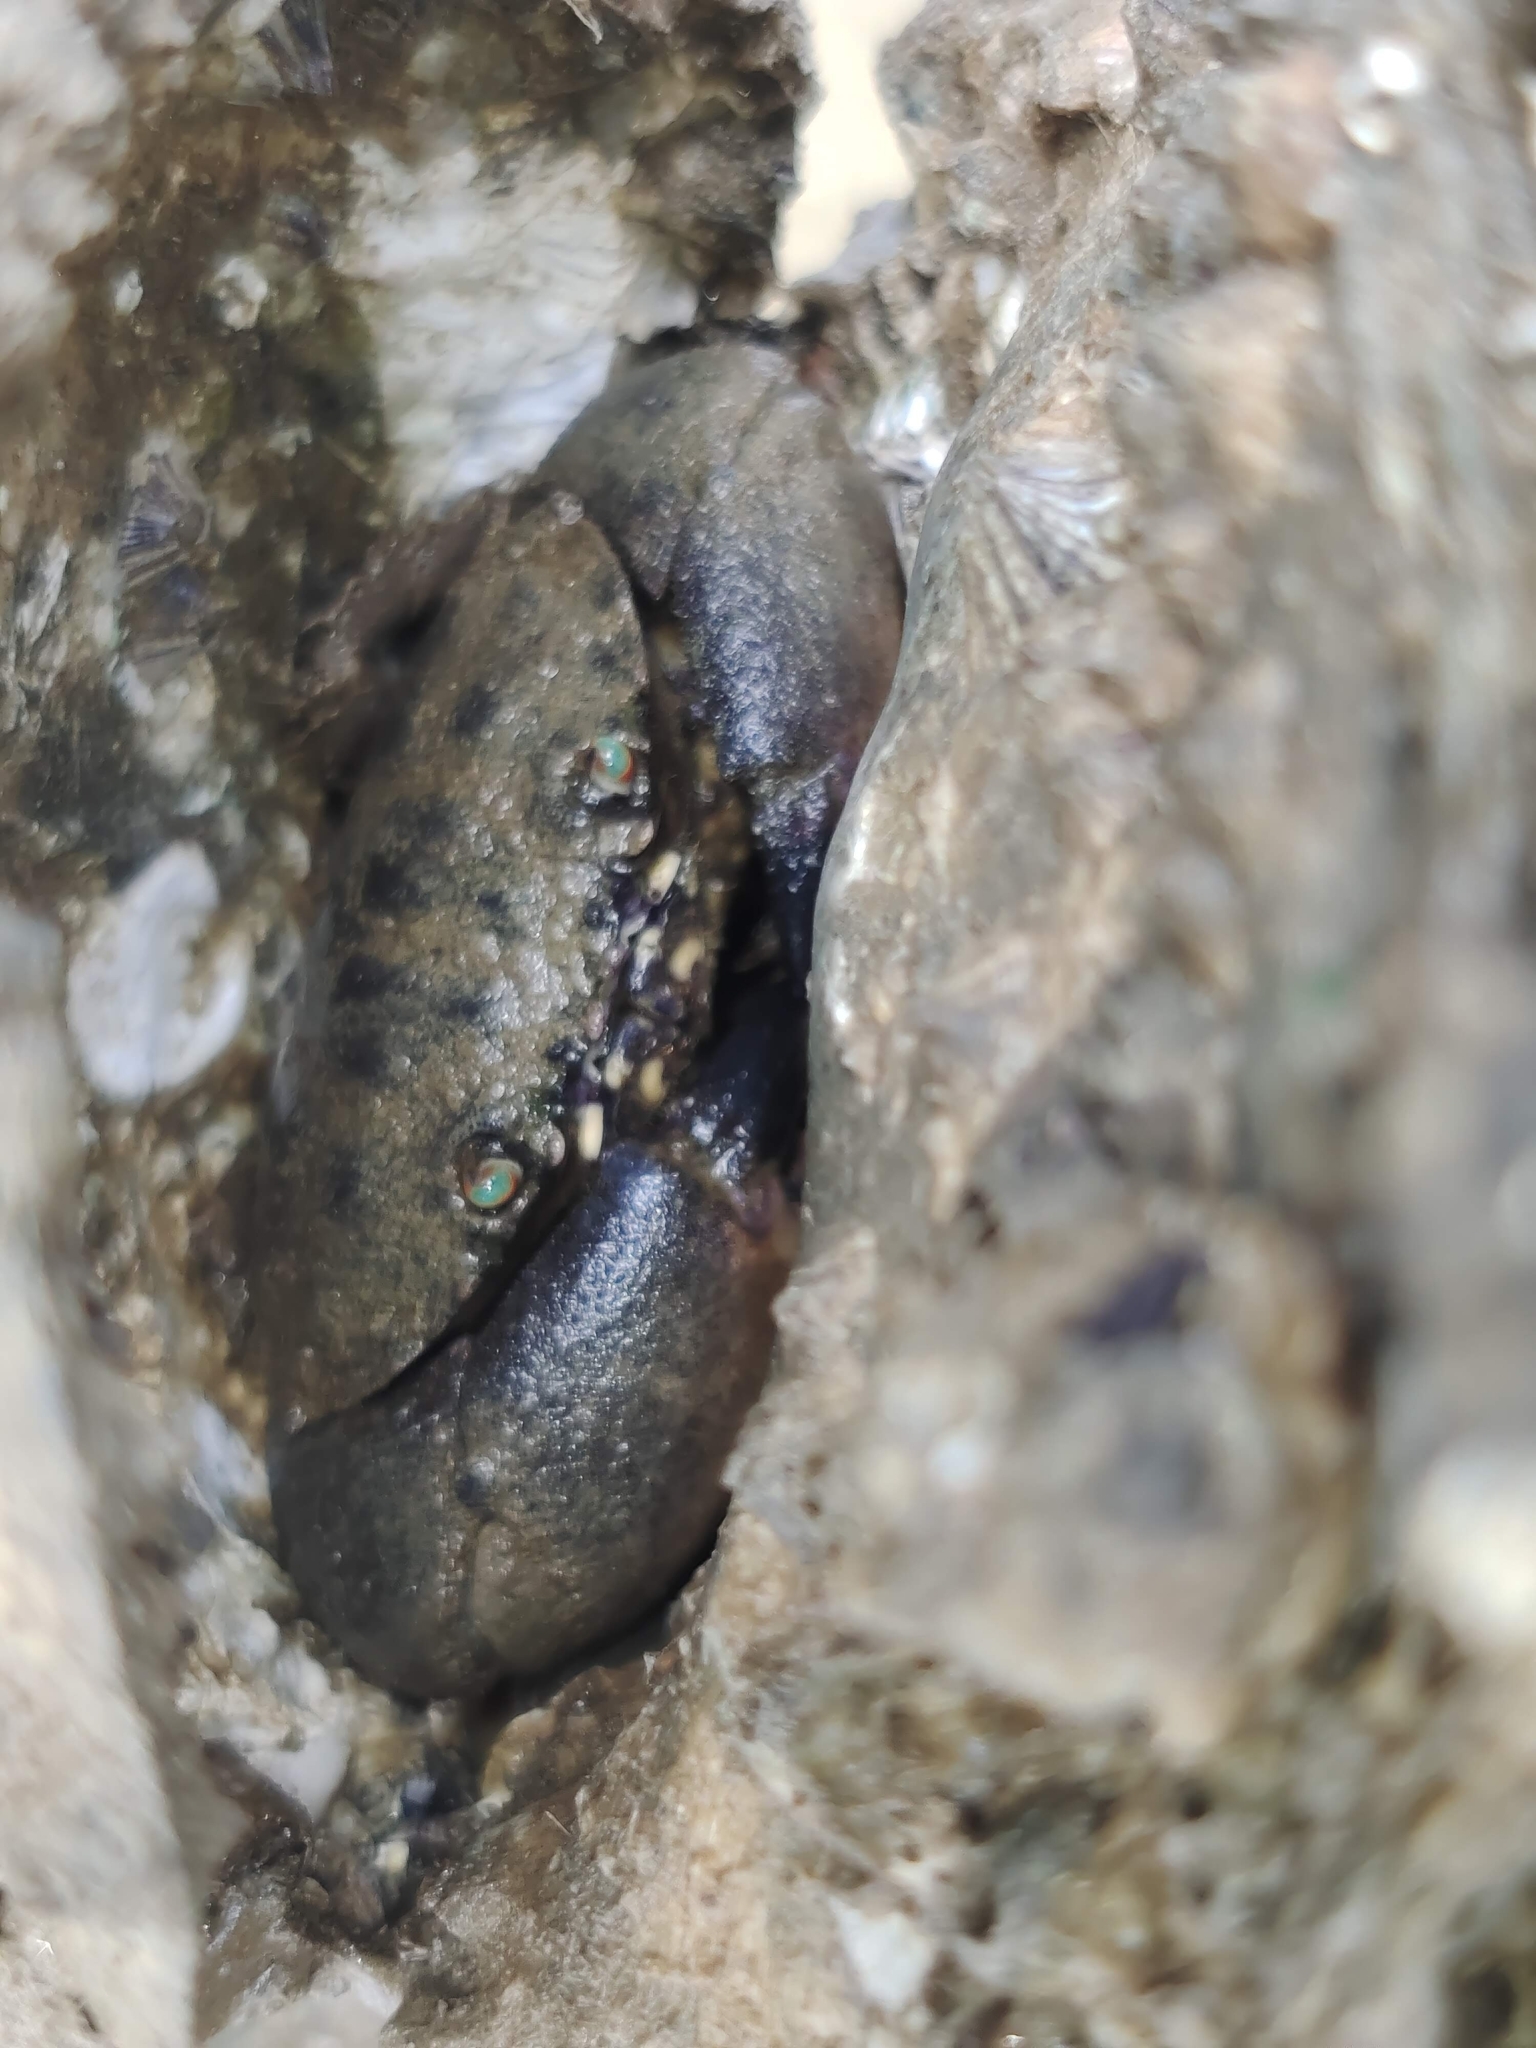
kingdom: Animalia
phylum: Arthropoda
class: Malacostraca
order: Decapoda
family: Menippidae
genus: Myomenippe
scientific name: Myomenippe hardwickii
